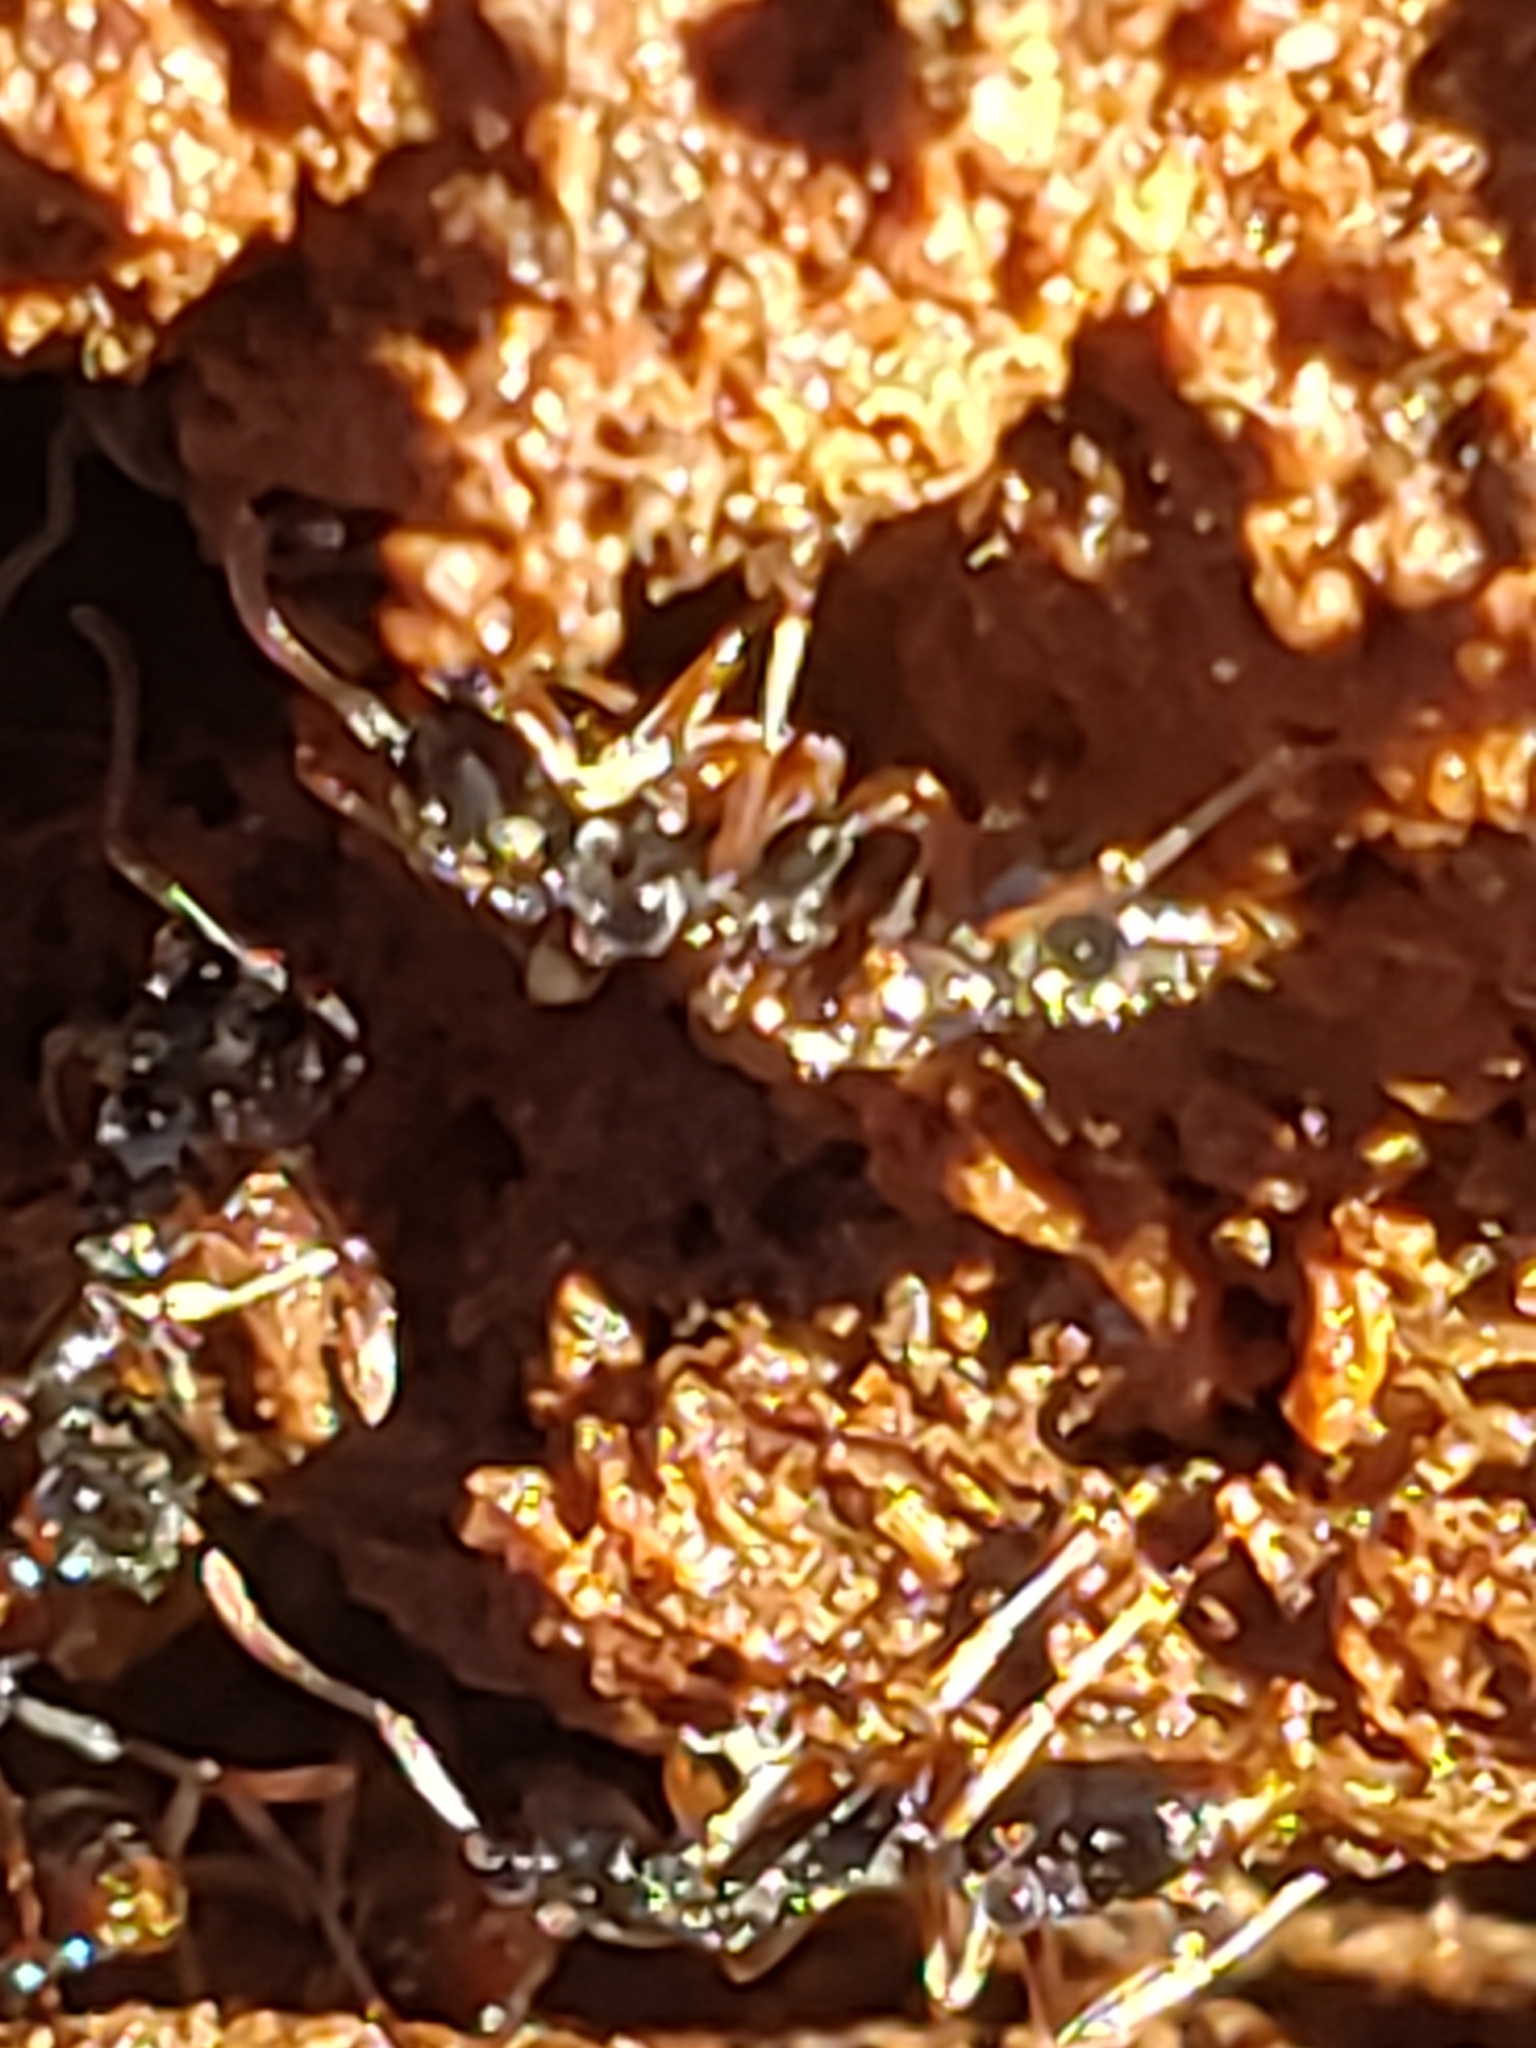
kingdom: Animalia
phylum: Arthropoda
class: Insecta
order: Hymenoptera
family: Formicidae
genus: Pachycondyla
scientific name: Pachycondyla chinensis
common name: Asian needle ant
